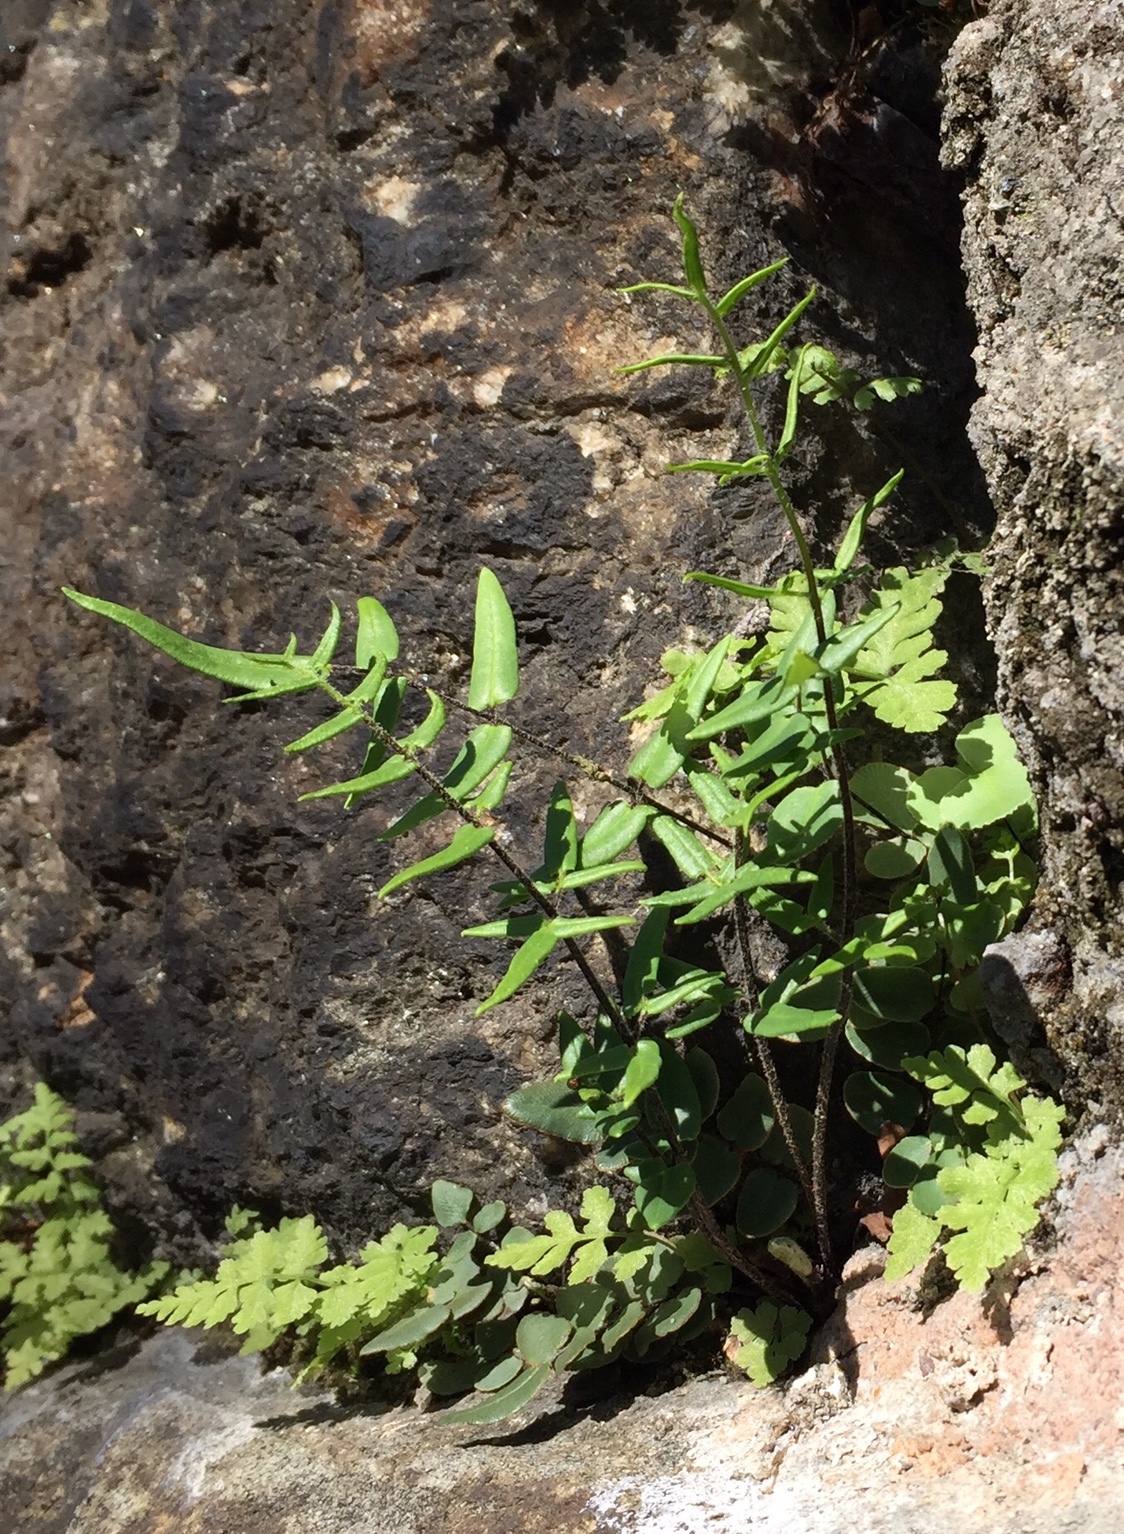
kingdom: Plantae
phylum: Tracheophyta
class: Polypodiopsida
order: Polypodiales
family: Pteridaceae
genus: Pellaea
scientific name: Pellaea atropurpurea
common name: Hairy cliffbrake
